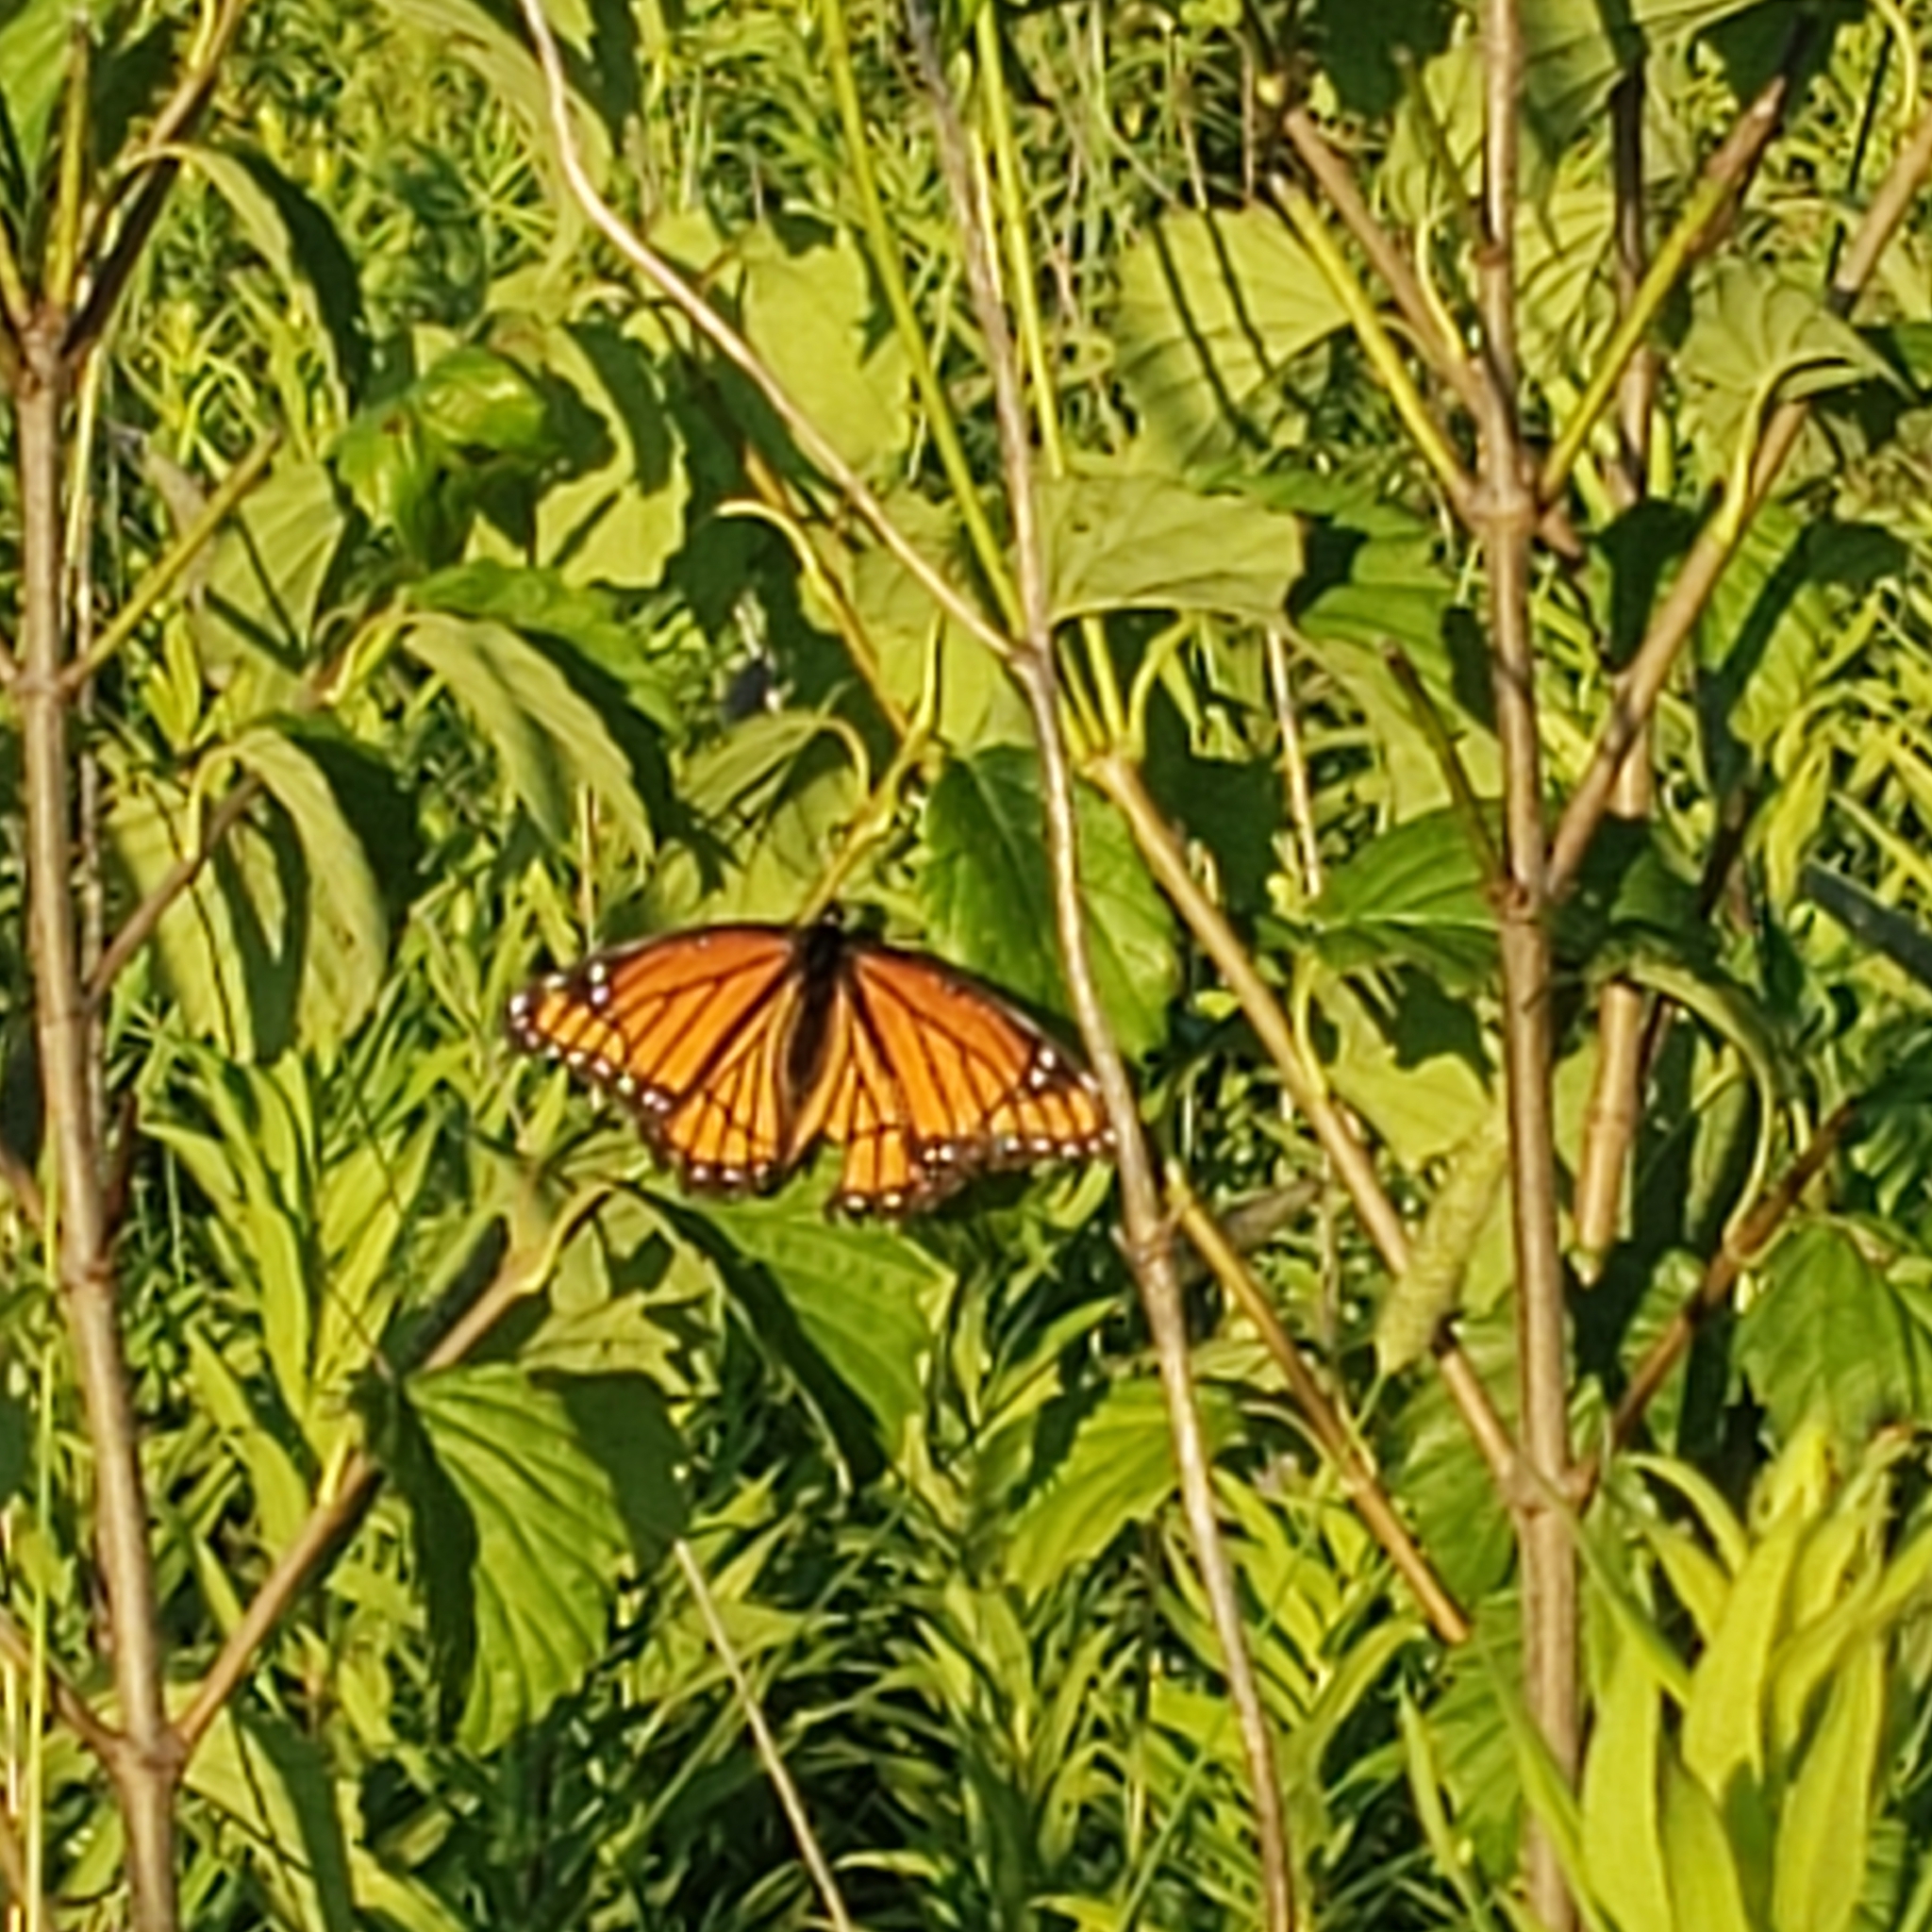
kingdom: Animalia
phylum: Arthropoda
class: Insecta
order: Lepidoptera
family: Nymphalidae
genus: Limenitis
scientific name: Limenitis archippus
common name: Viceroy
